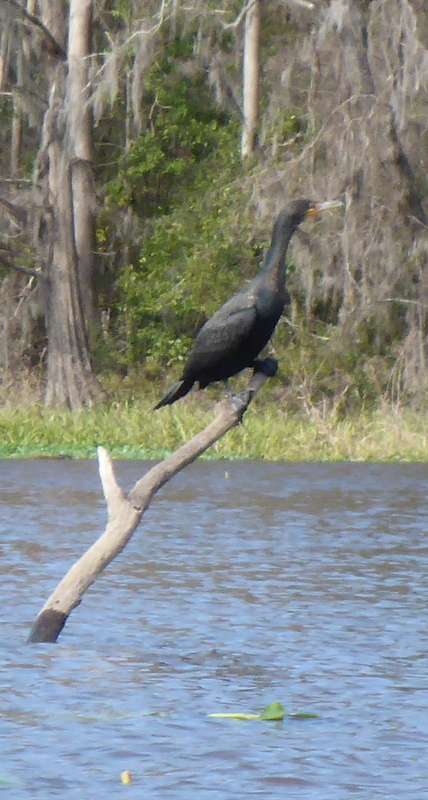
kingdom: Animalia
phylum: Chordata
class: Aves
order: Suliformes
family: Phalacrocoracidae
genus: Phalacrocorax
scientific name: Phalacrocorax auritus
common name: Double-crested cormorant
